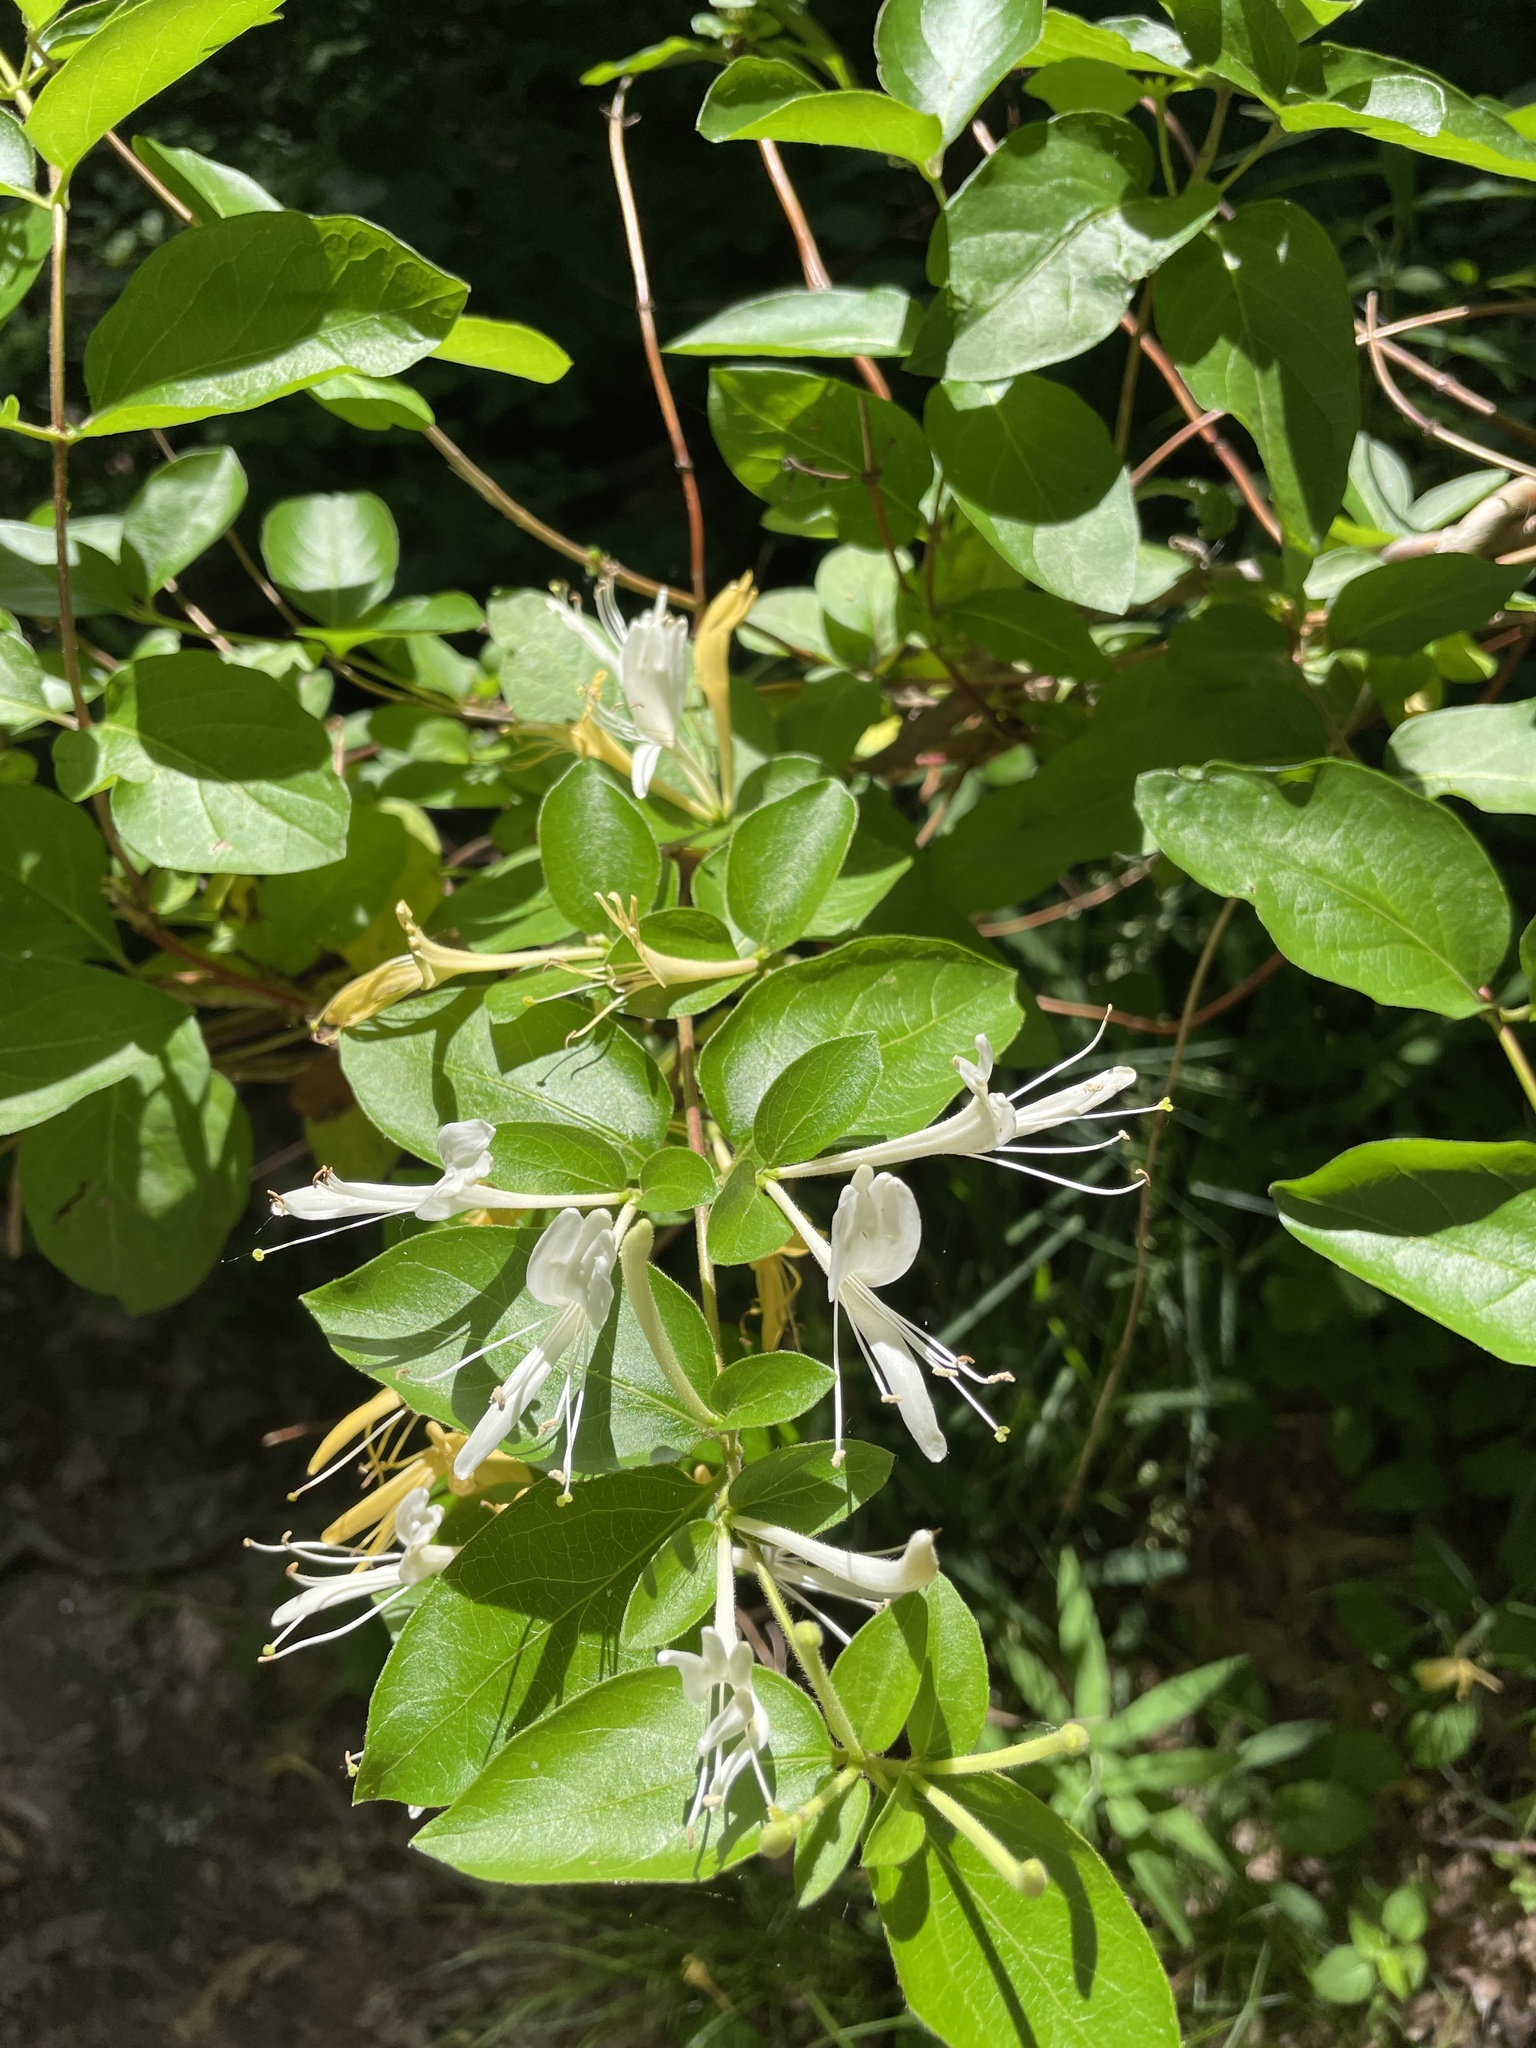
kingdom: Plantae
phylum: Tracheophyta
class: Magnoliopsida
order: Dipsacales
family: Caprifoliaceae
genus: Lonicera
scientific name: Lonicera japonica
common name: Japanese honeysuckle
